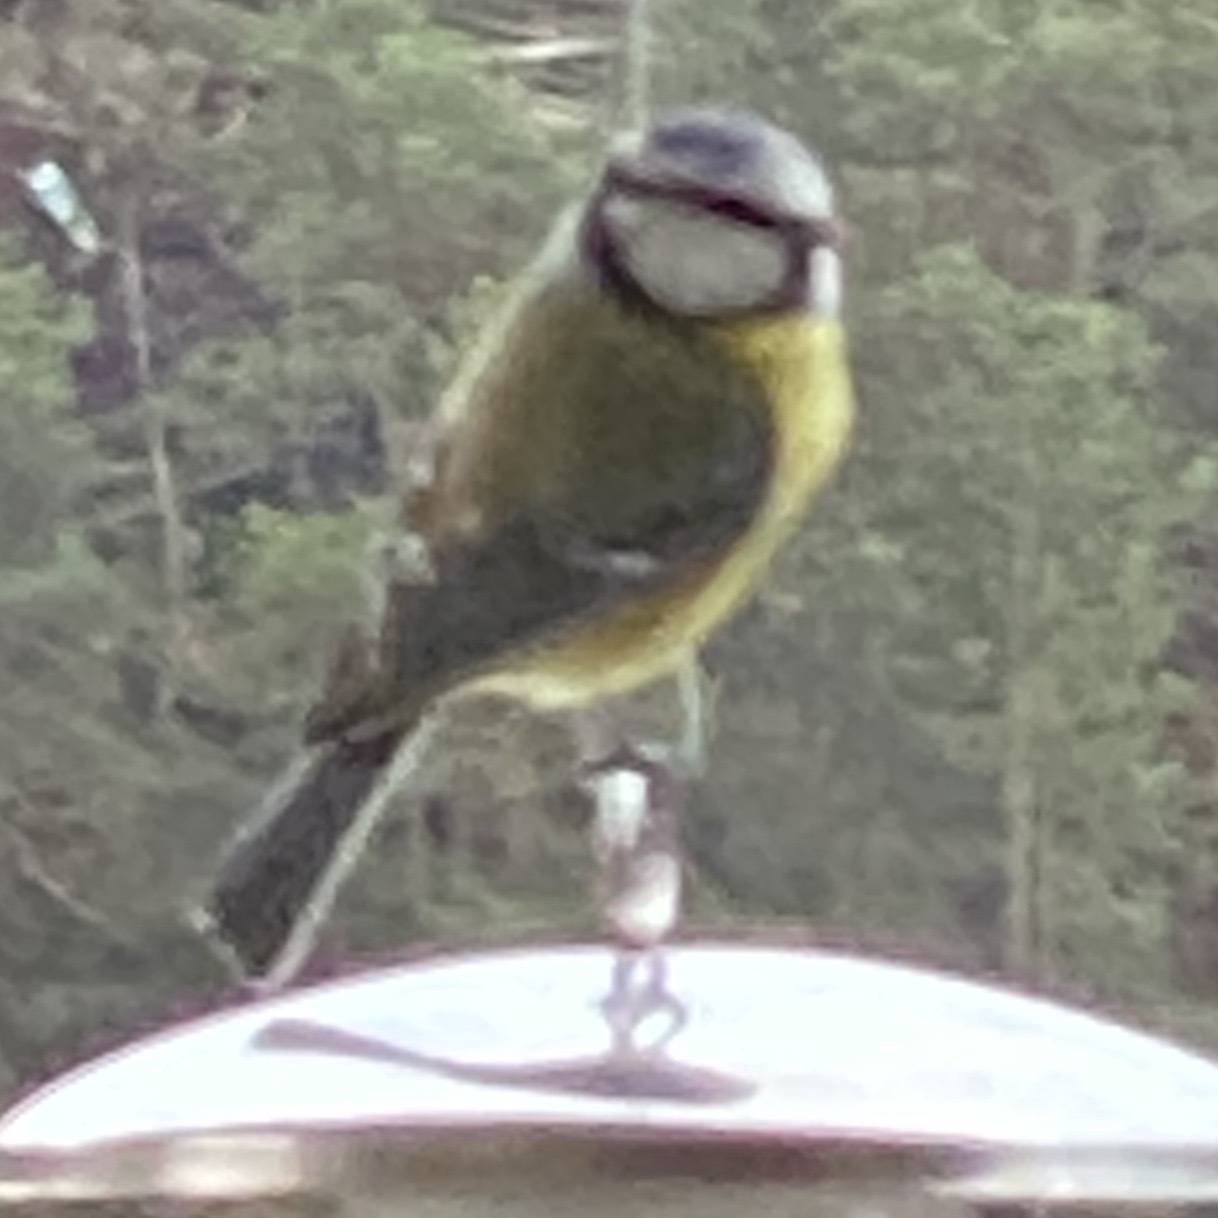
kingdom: Animalia
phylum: Chordata
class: Aves
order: Passeriformes
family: Paridae
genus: Cyanistes
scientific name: Cyanistes caeruleus
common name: Eurasian blue tit
